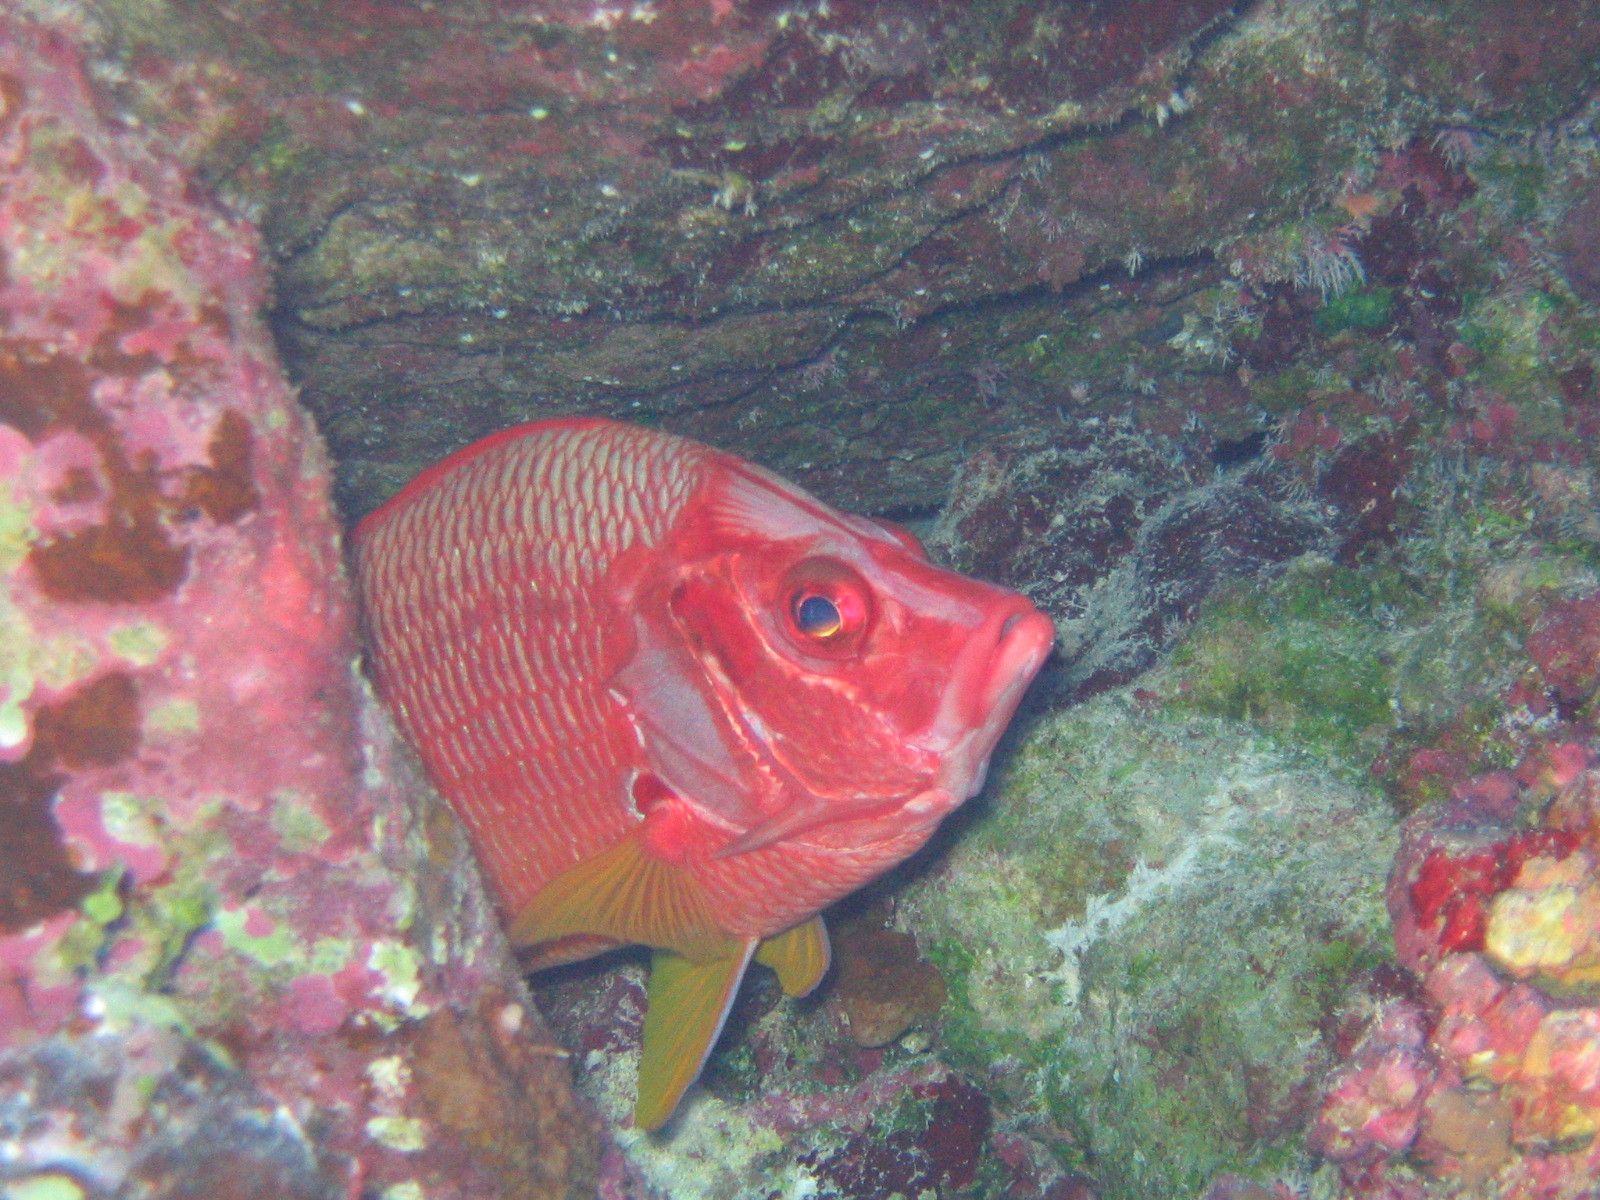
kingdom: Animalia
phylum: Chordata
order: Beryciformes
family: Holocentridae
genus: Sargocentron
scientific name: Sargocentron spiniferum
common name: Giant squirrelfish
